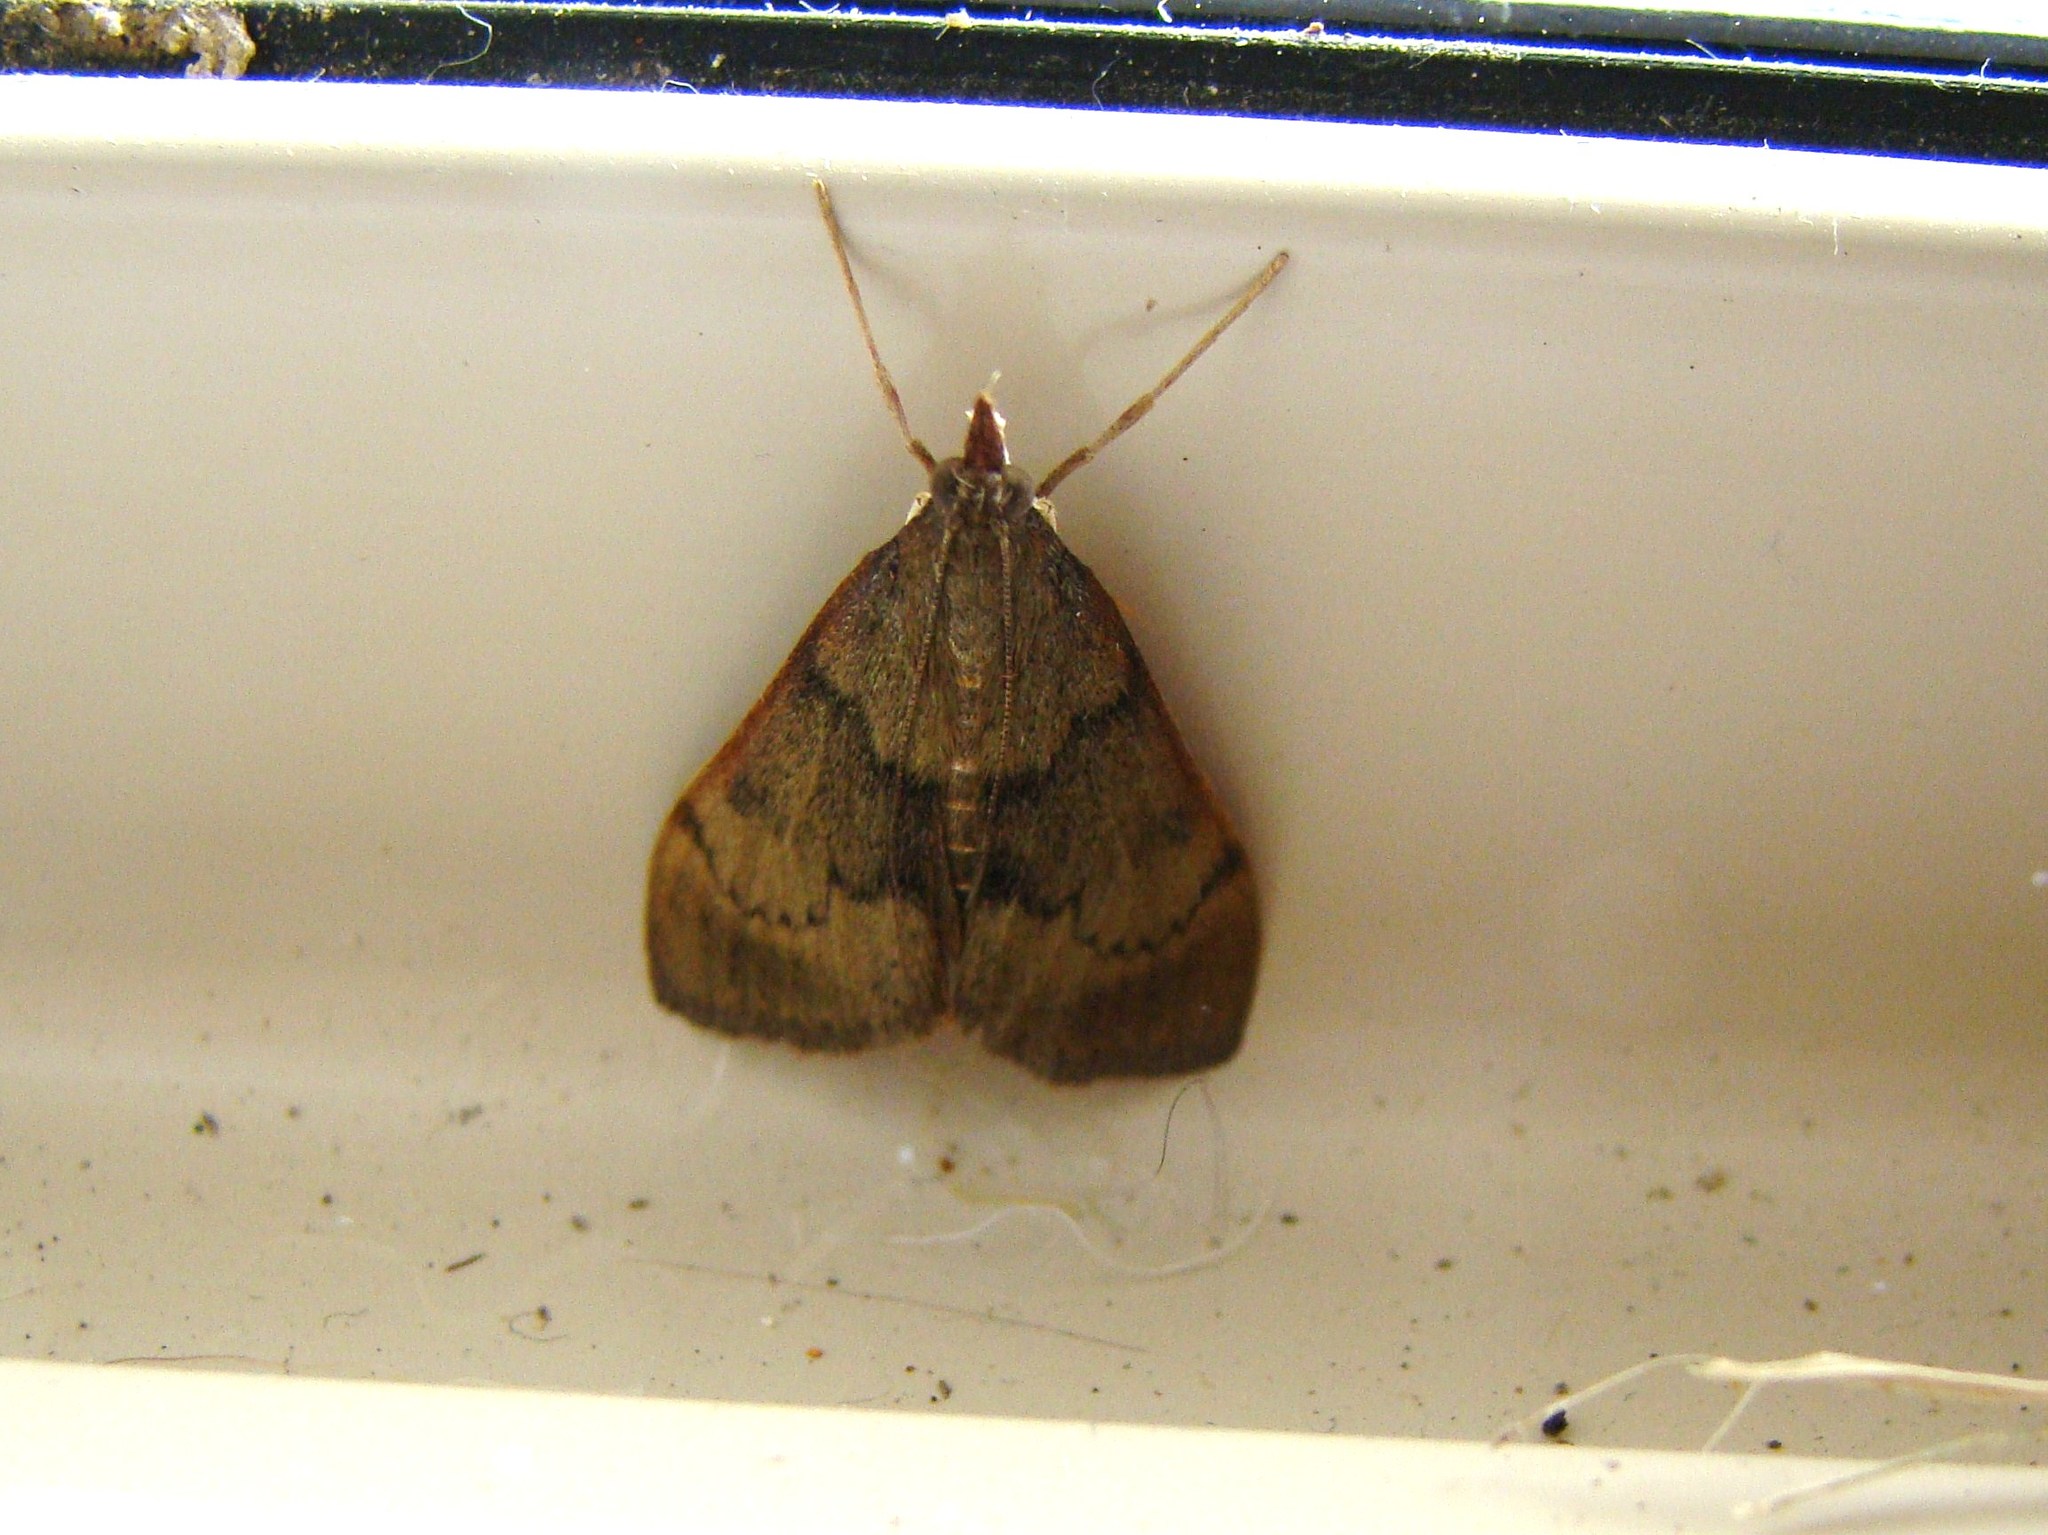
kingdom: Animalia
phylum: Arthropoda
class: Insecta
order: Lepidoptera
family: Crambidae
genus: Uresiphita
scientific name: Uresiphita
